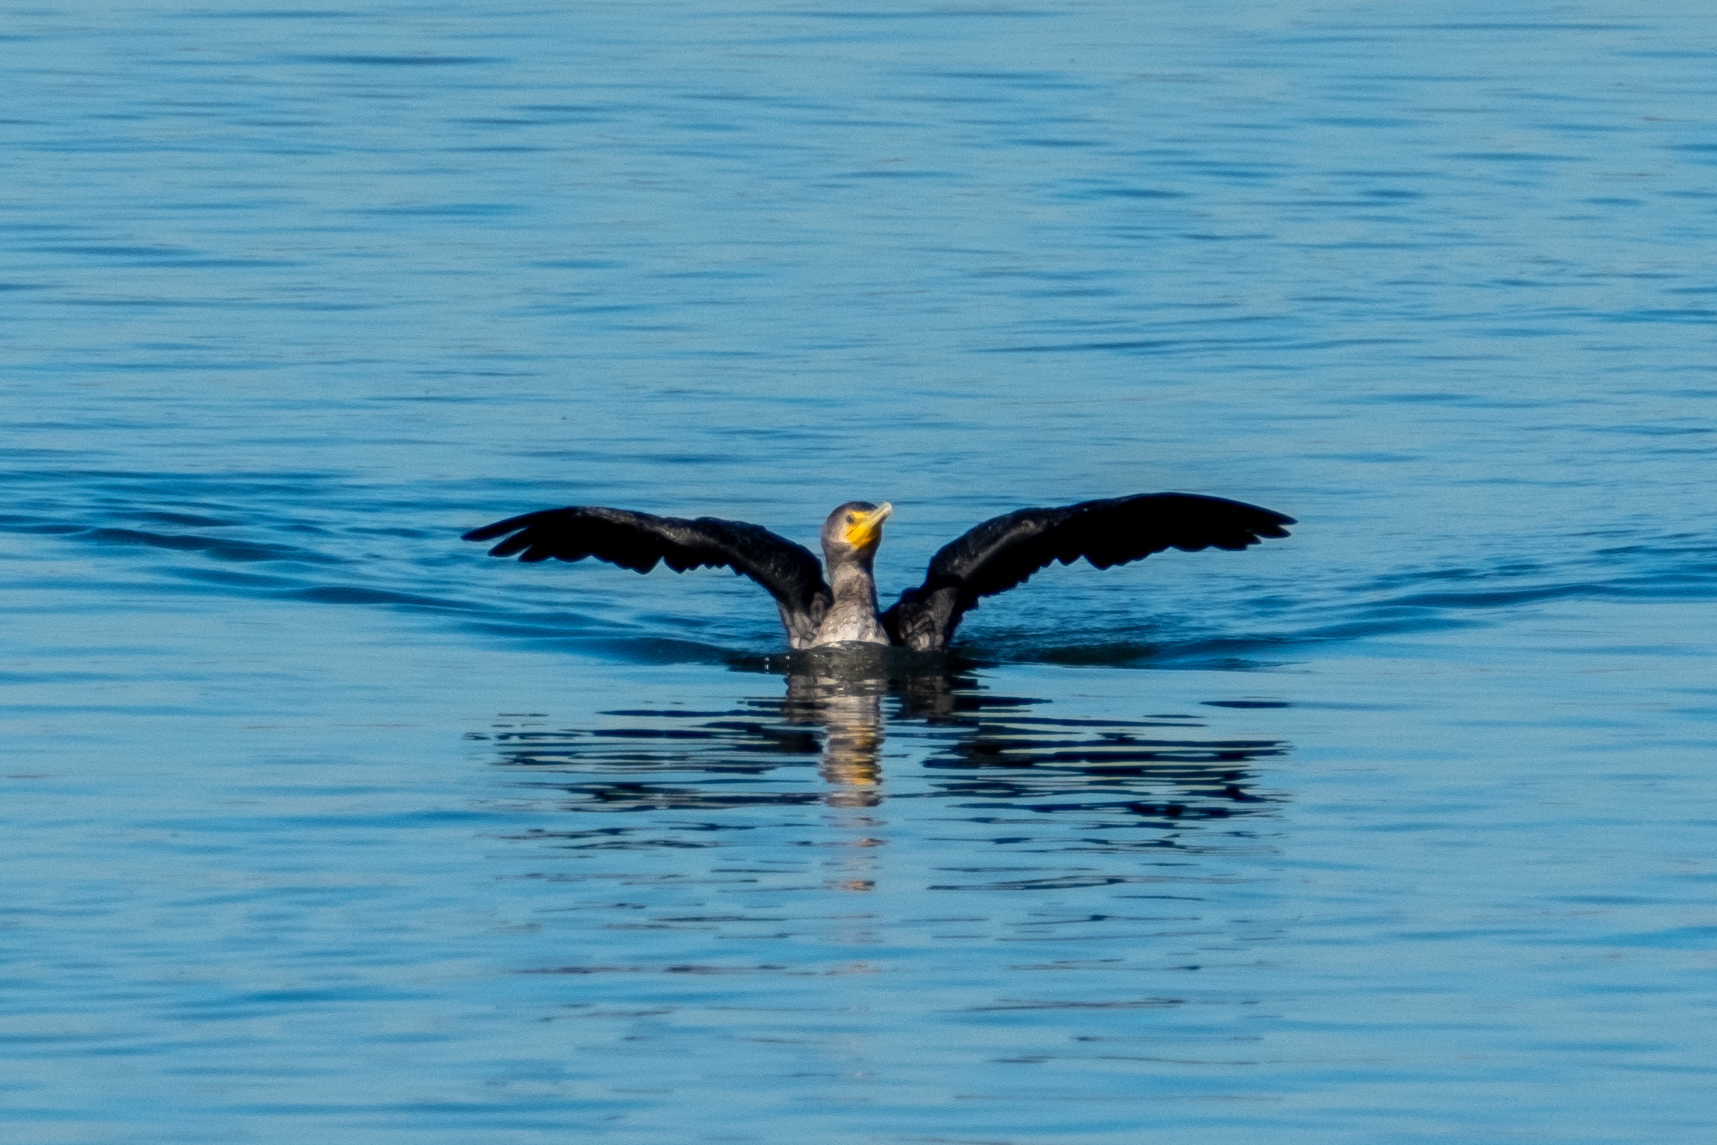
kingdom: Animalia
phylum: Chordata
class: Aves
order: Suliformes
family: Phalacrocoracidae
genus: Phalacrocorax
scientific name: Phalacrocorax auritus
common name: Double-crested cormorant
